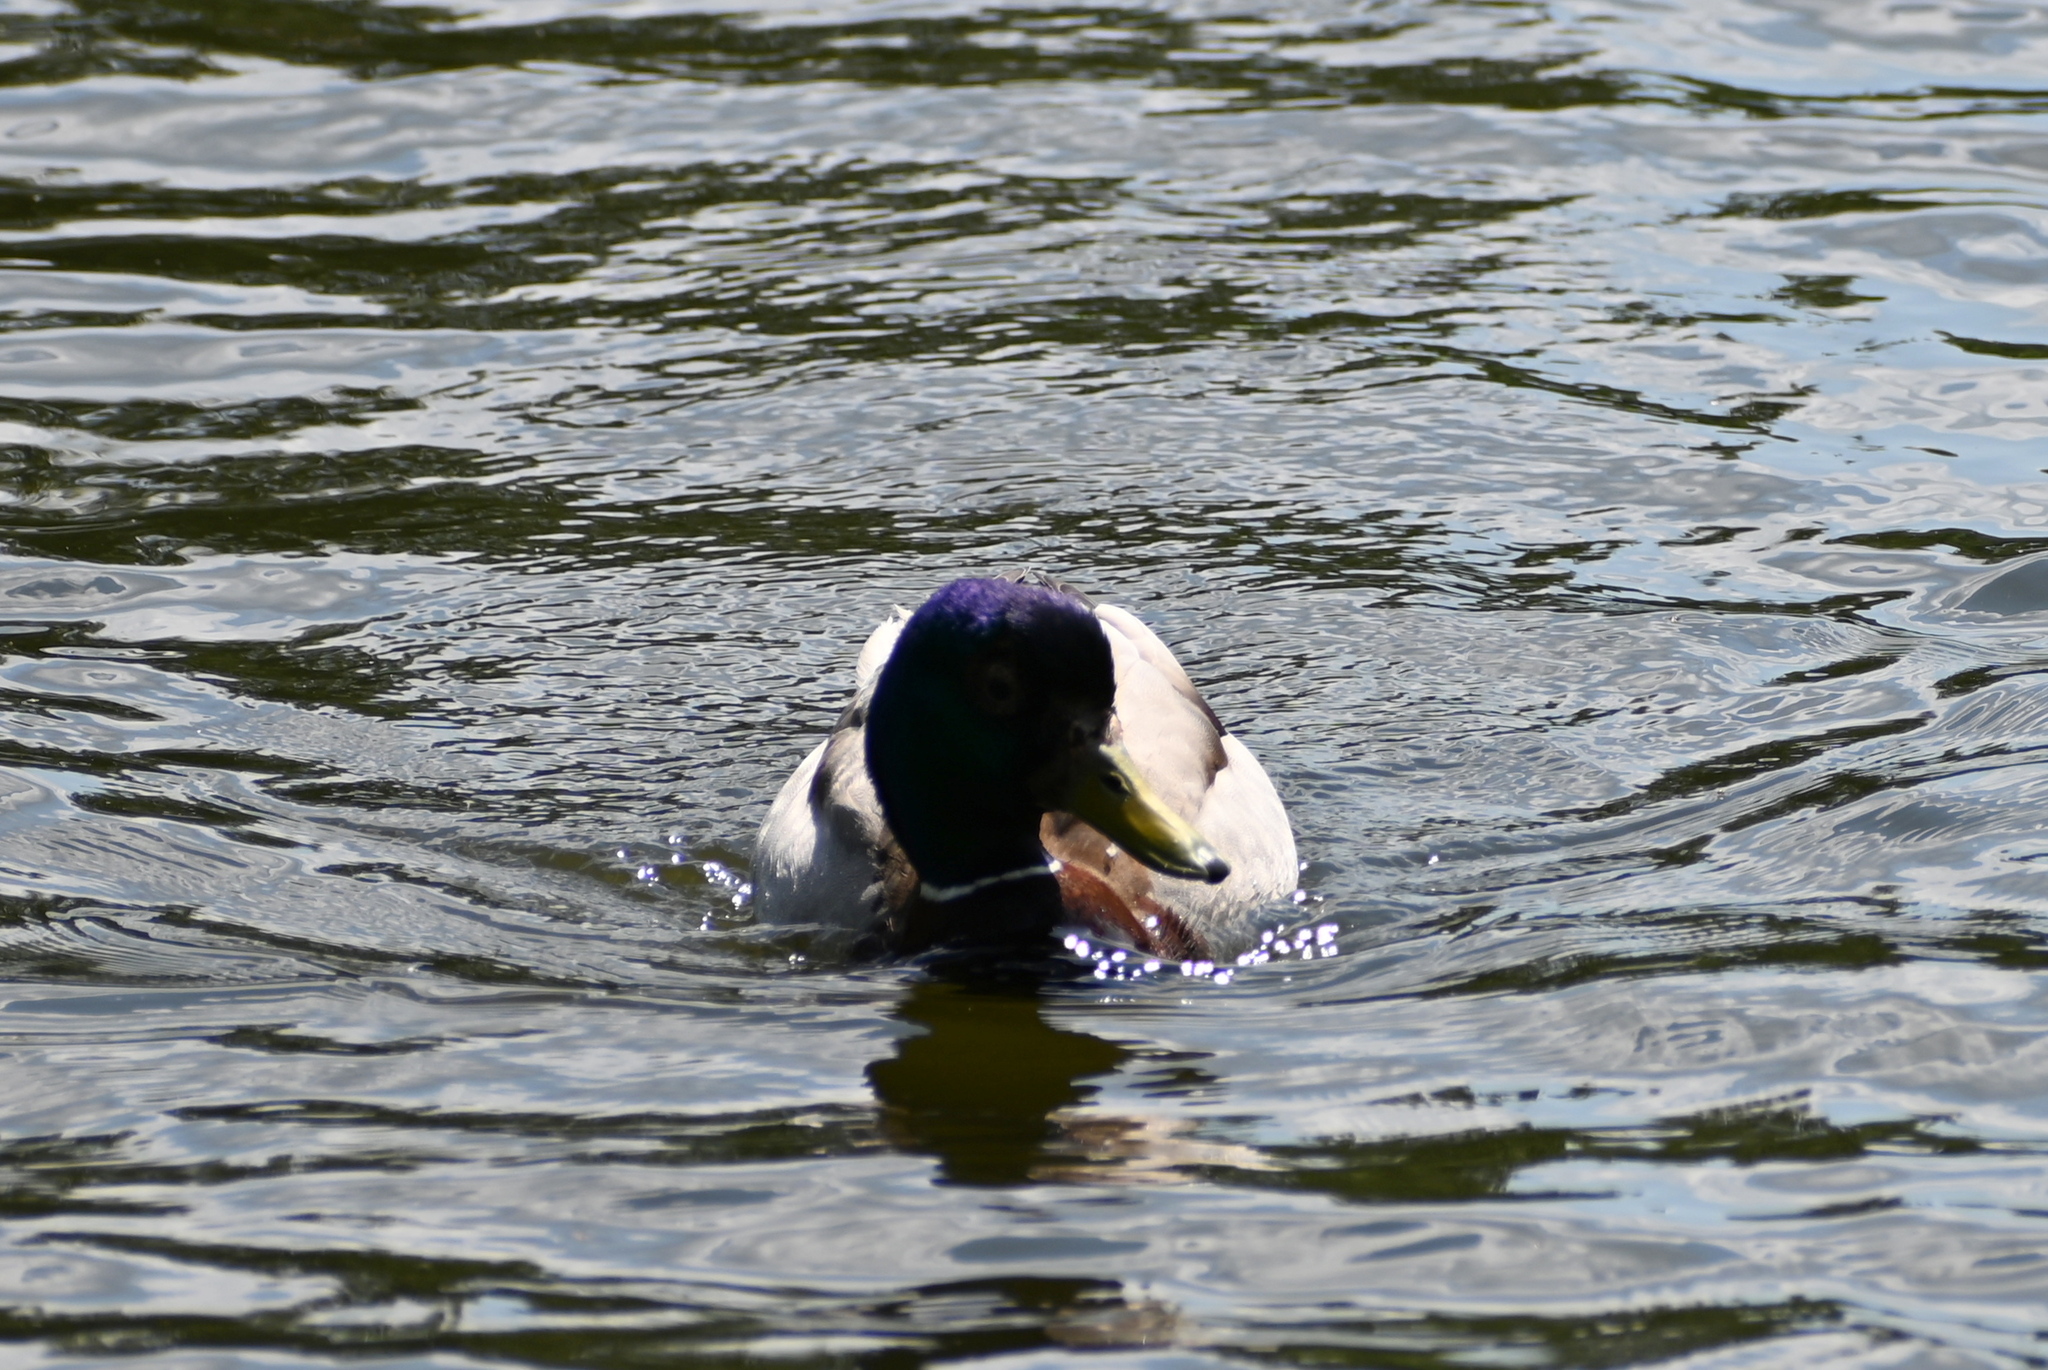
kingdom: Animalia
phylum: Chordata
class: Aves
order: Anseriformes
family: Anatidae
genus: Anas
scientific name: Anas platyrhynchos
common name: Mallard
